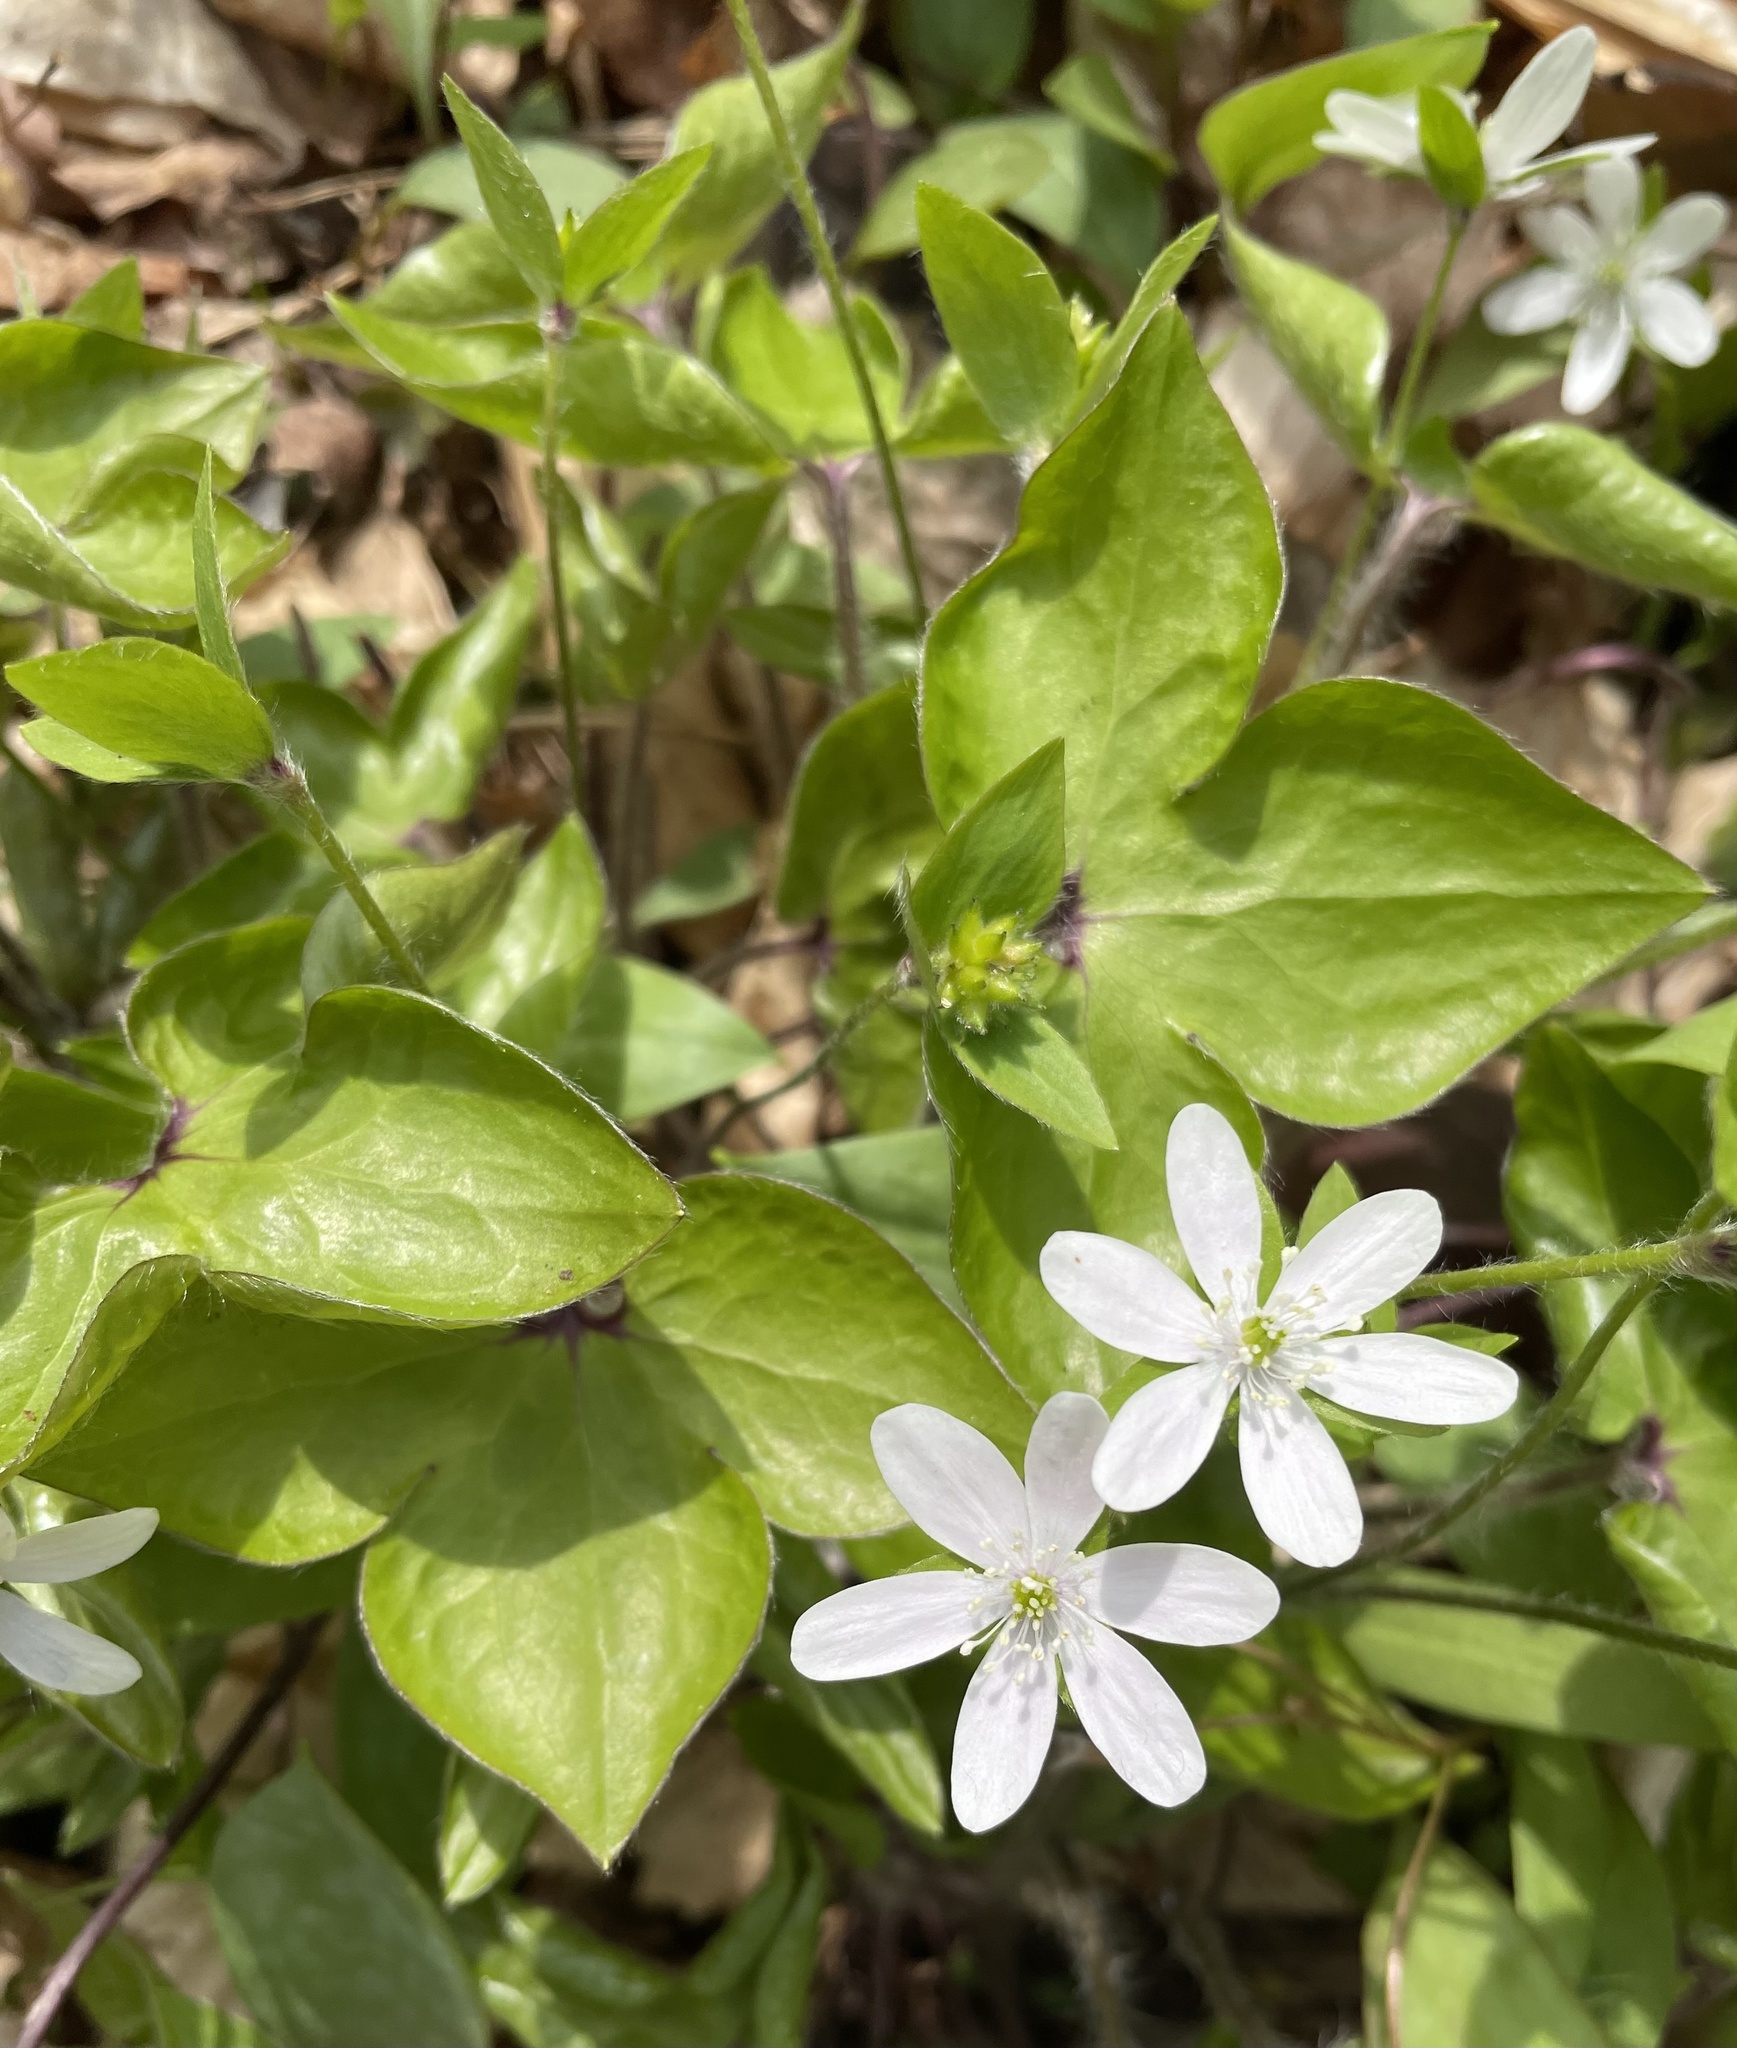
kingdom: Plantae
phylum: Tracheophyta
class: Magnoliopsida
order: Ranunculales
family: Ranunculaceae
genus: Hepatica
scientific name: Hepatica acutiloba
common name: Sharp-lobed hepatica
